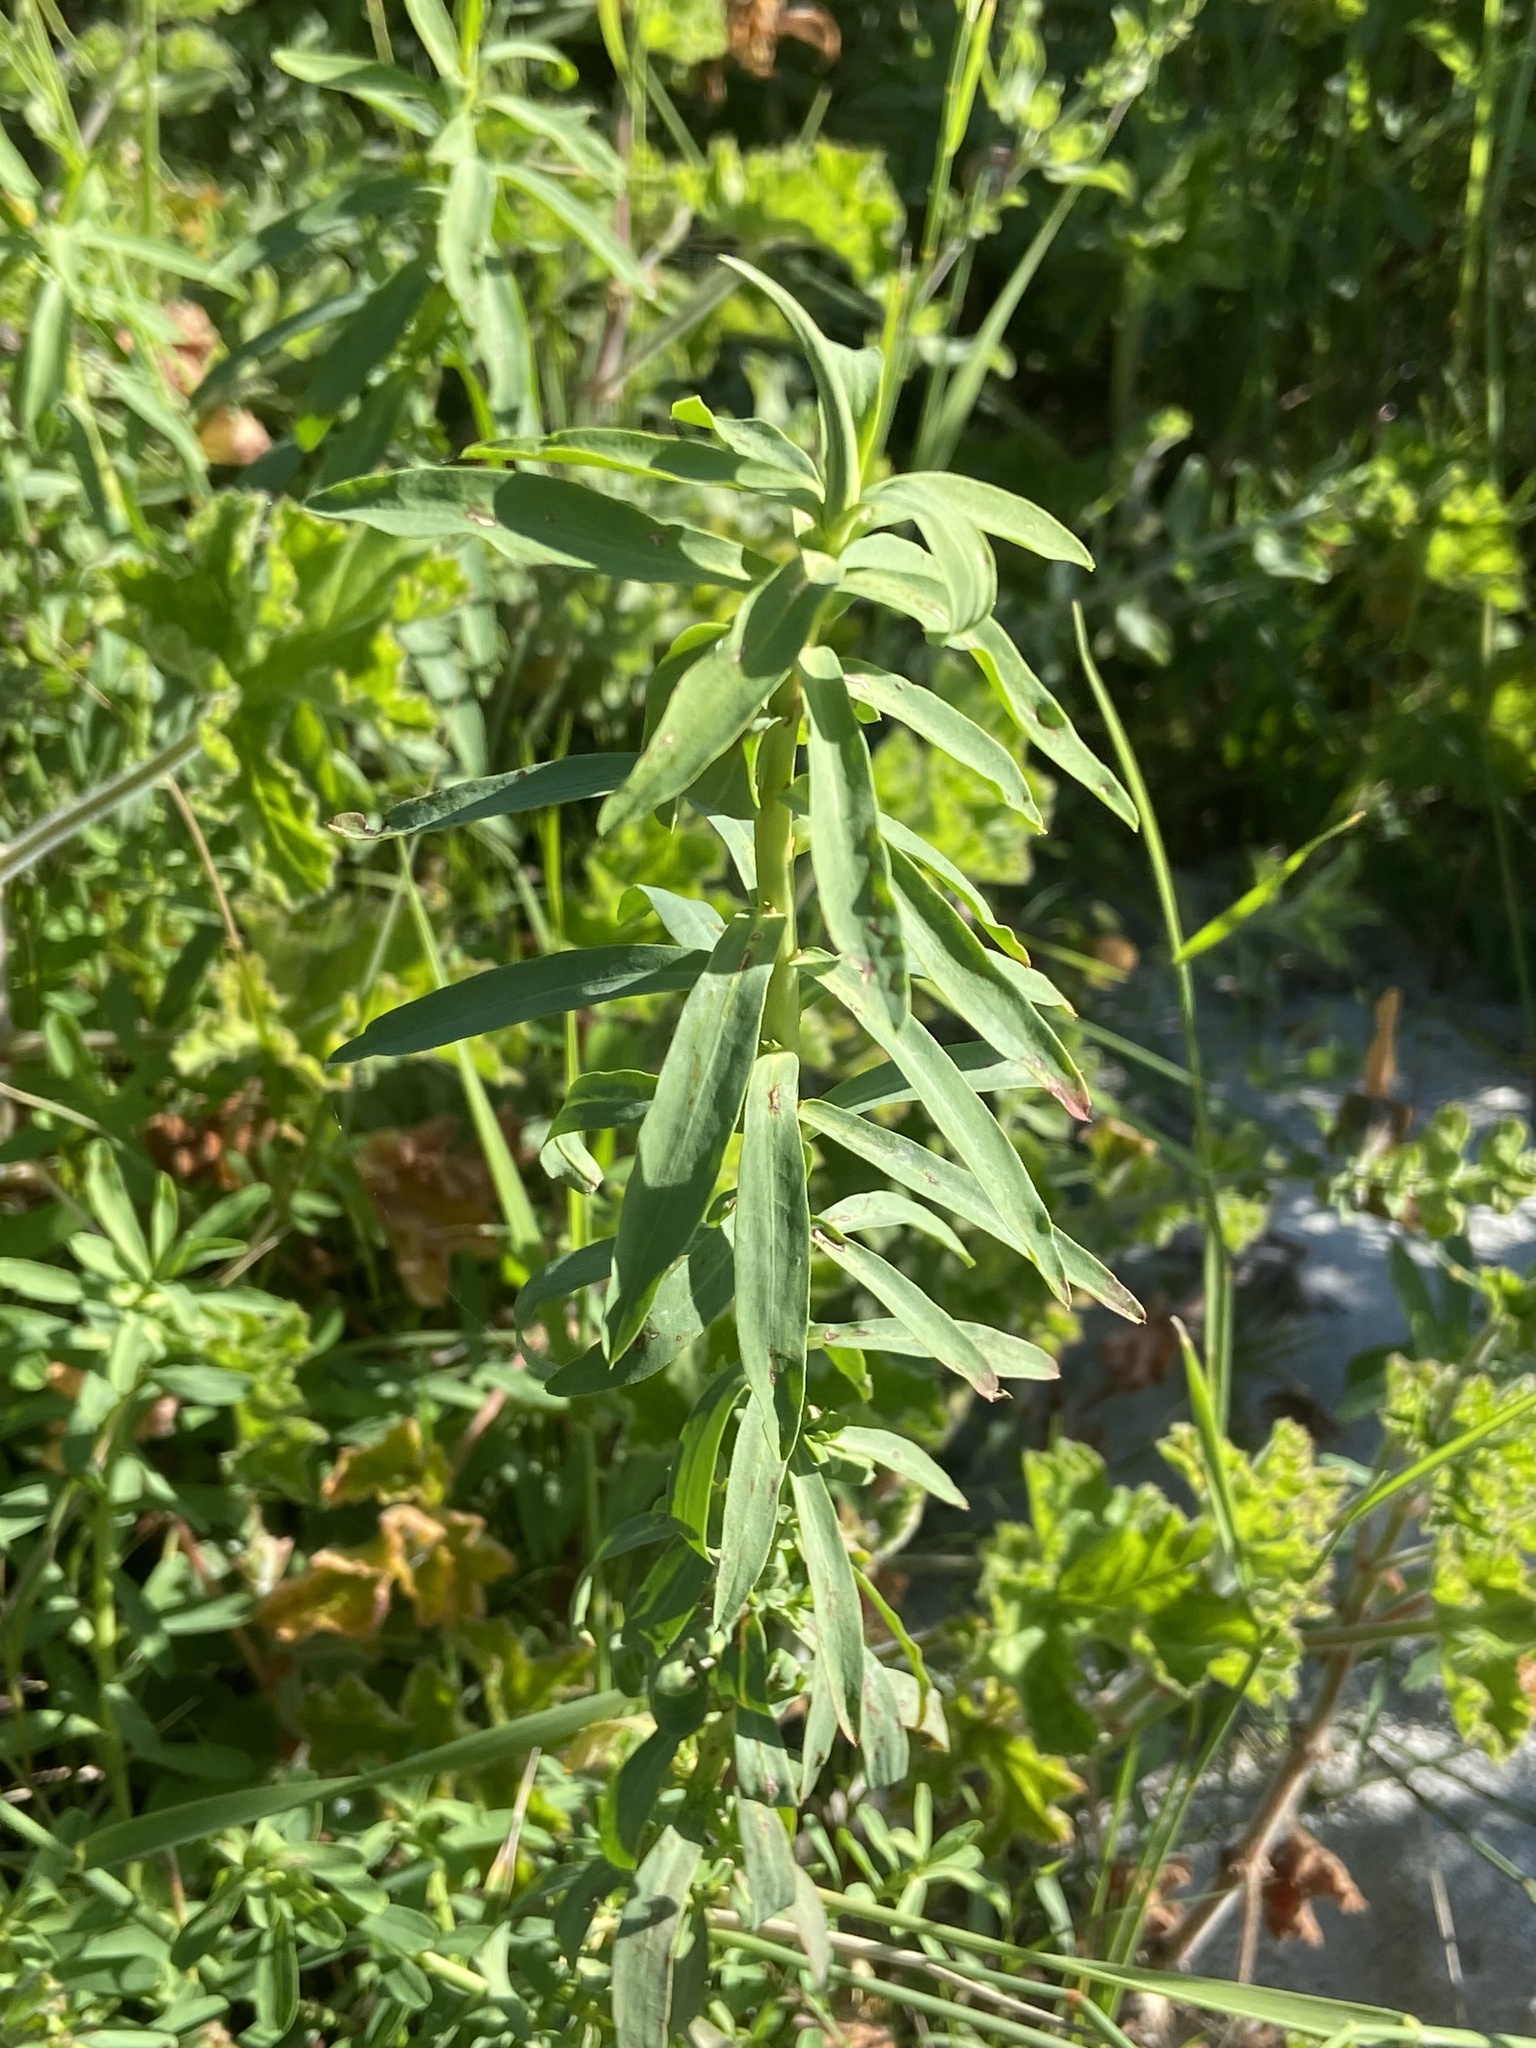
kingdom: Plantae
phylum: Tracheophyta
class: Magnoliopsida
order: Malpighiales
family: Euphorbiaceae
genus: Euphorbia
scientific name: Euphorbia terracina
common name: Geraldton carnation weed
